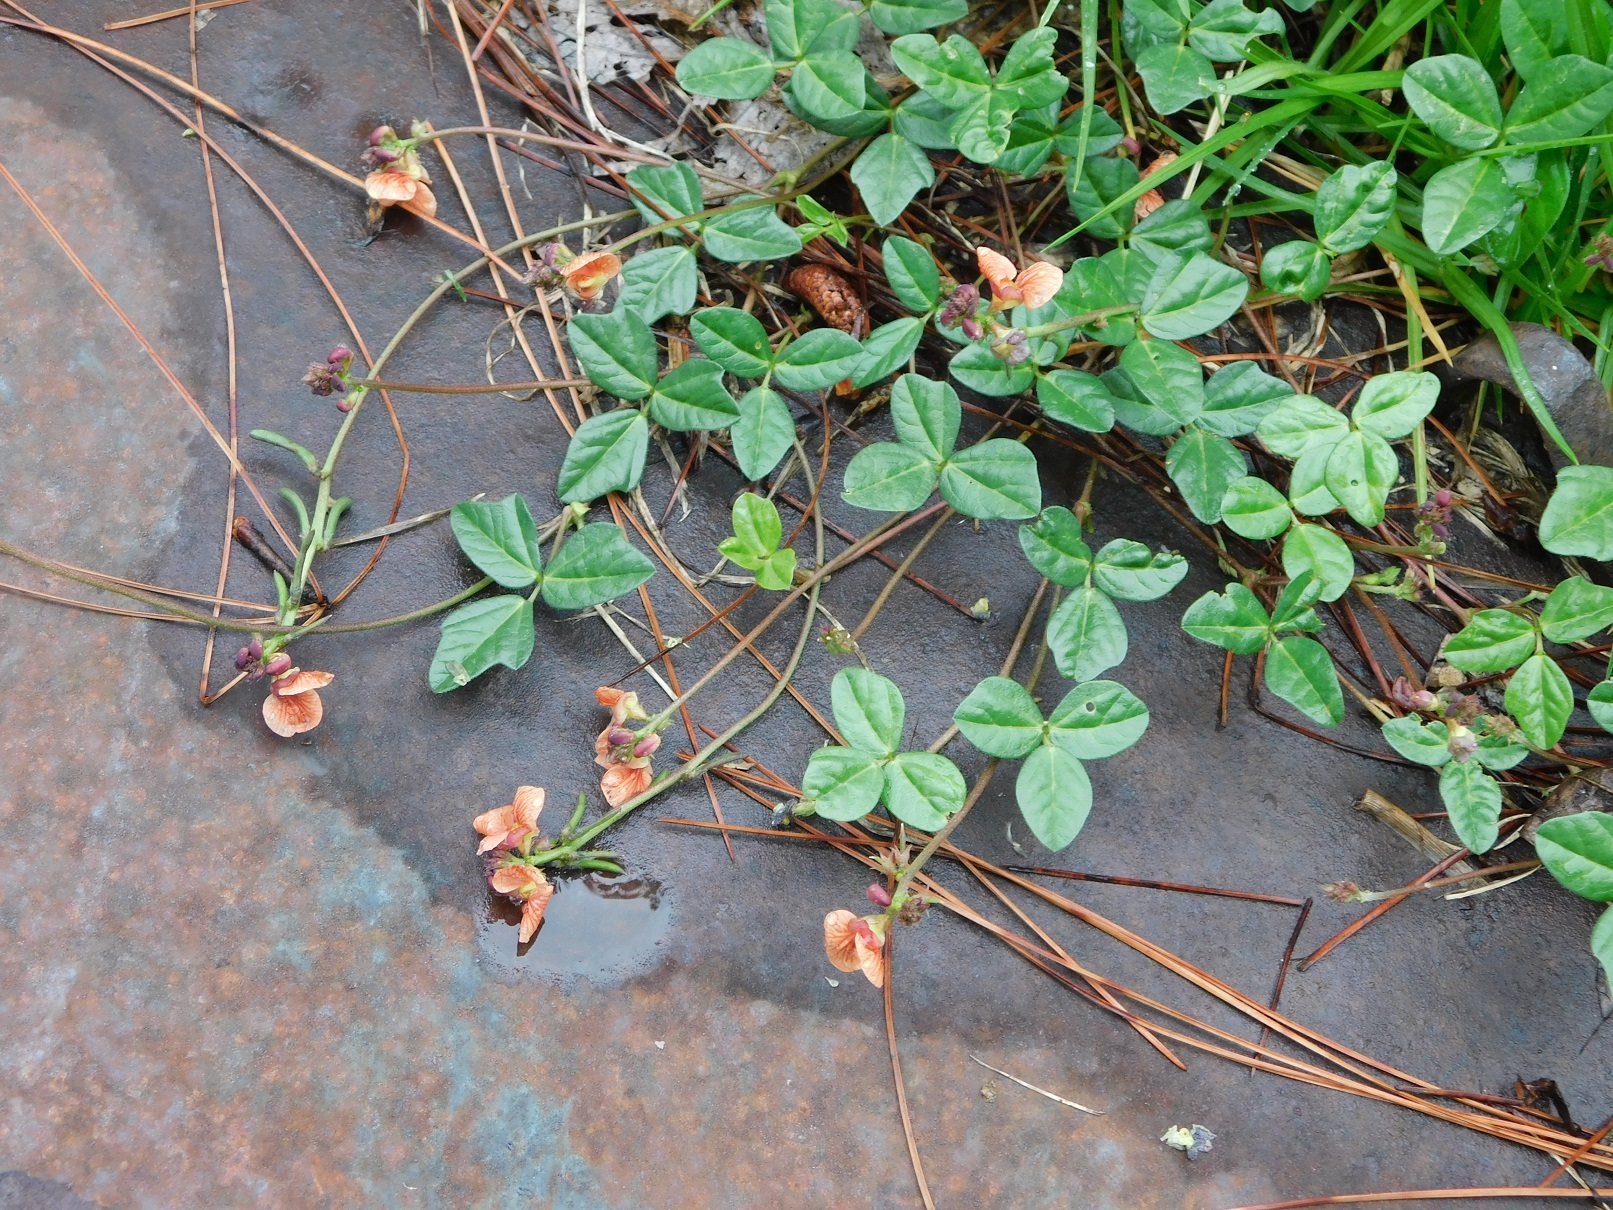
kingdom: Plantae
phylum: Tracheophyta
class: Magnoliopsida
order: Fabales
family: Fabaceae
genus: Macroptilium
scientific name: Macroptilium gibbosifolium
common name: Variableleaf bushbean
